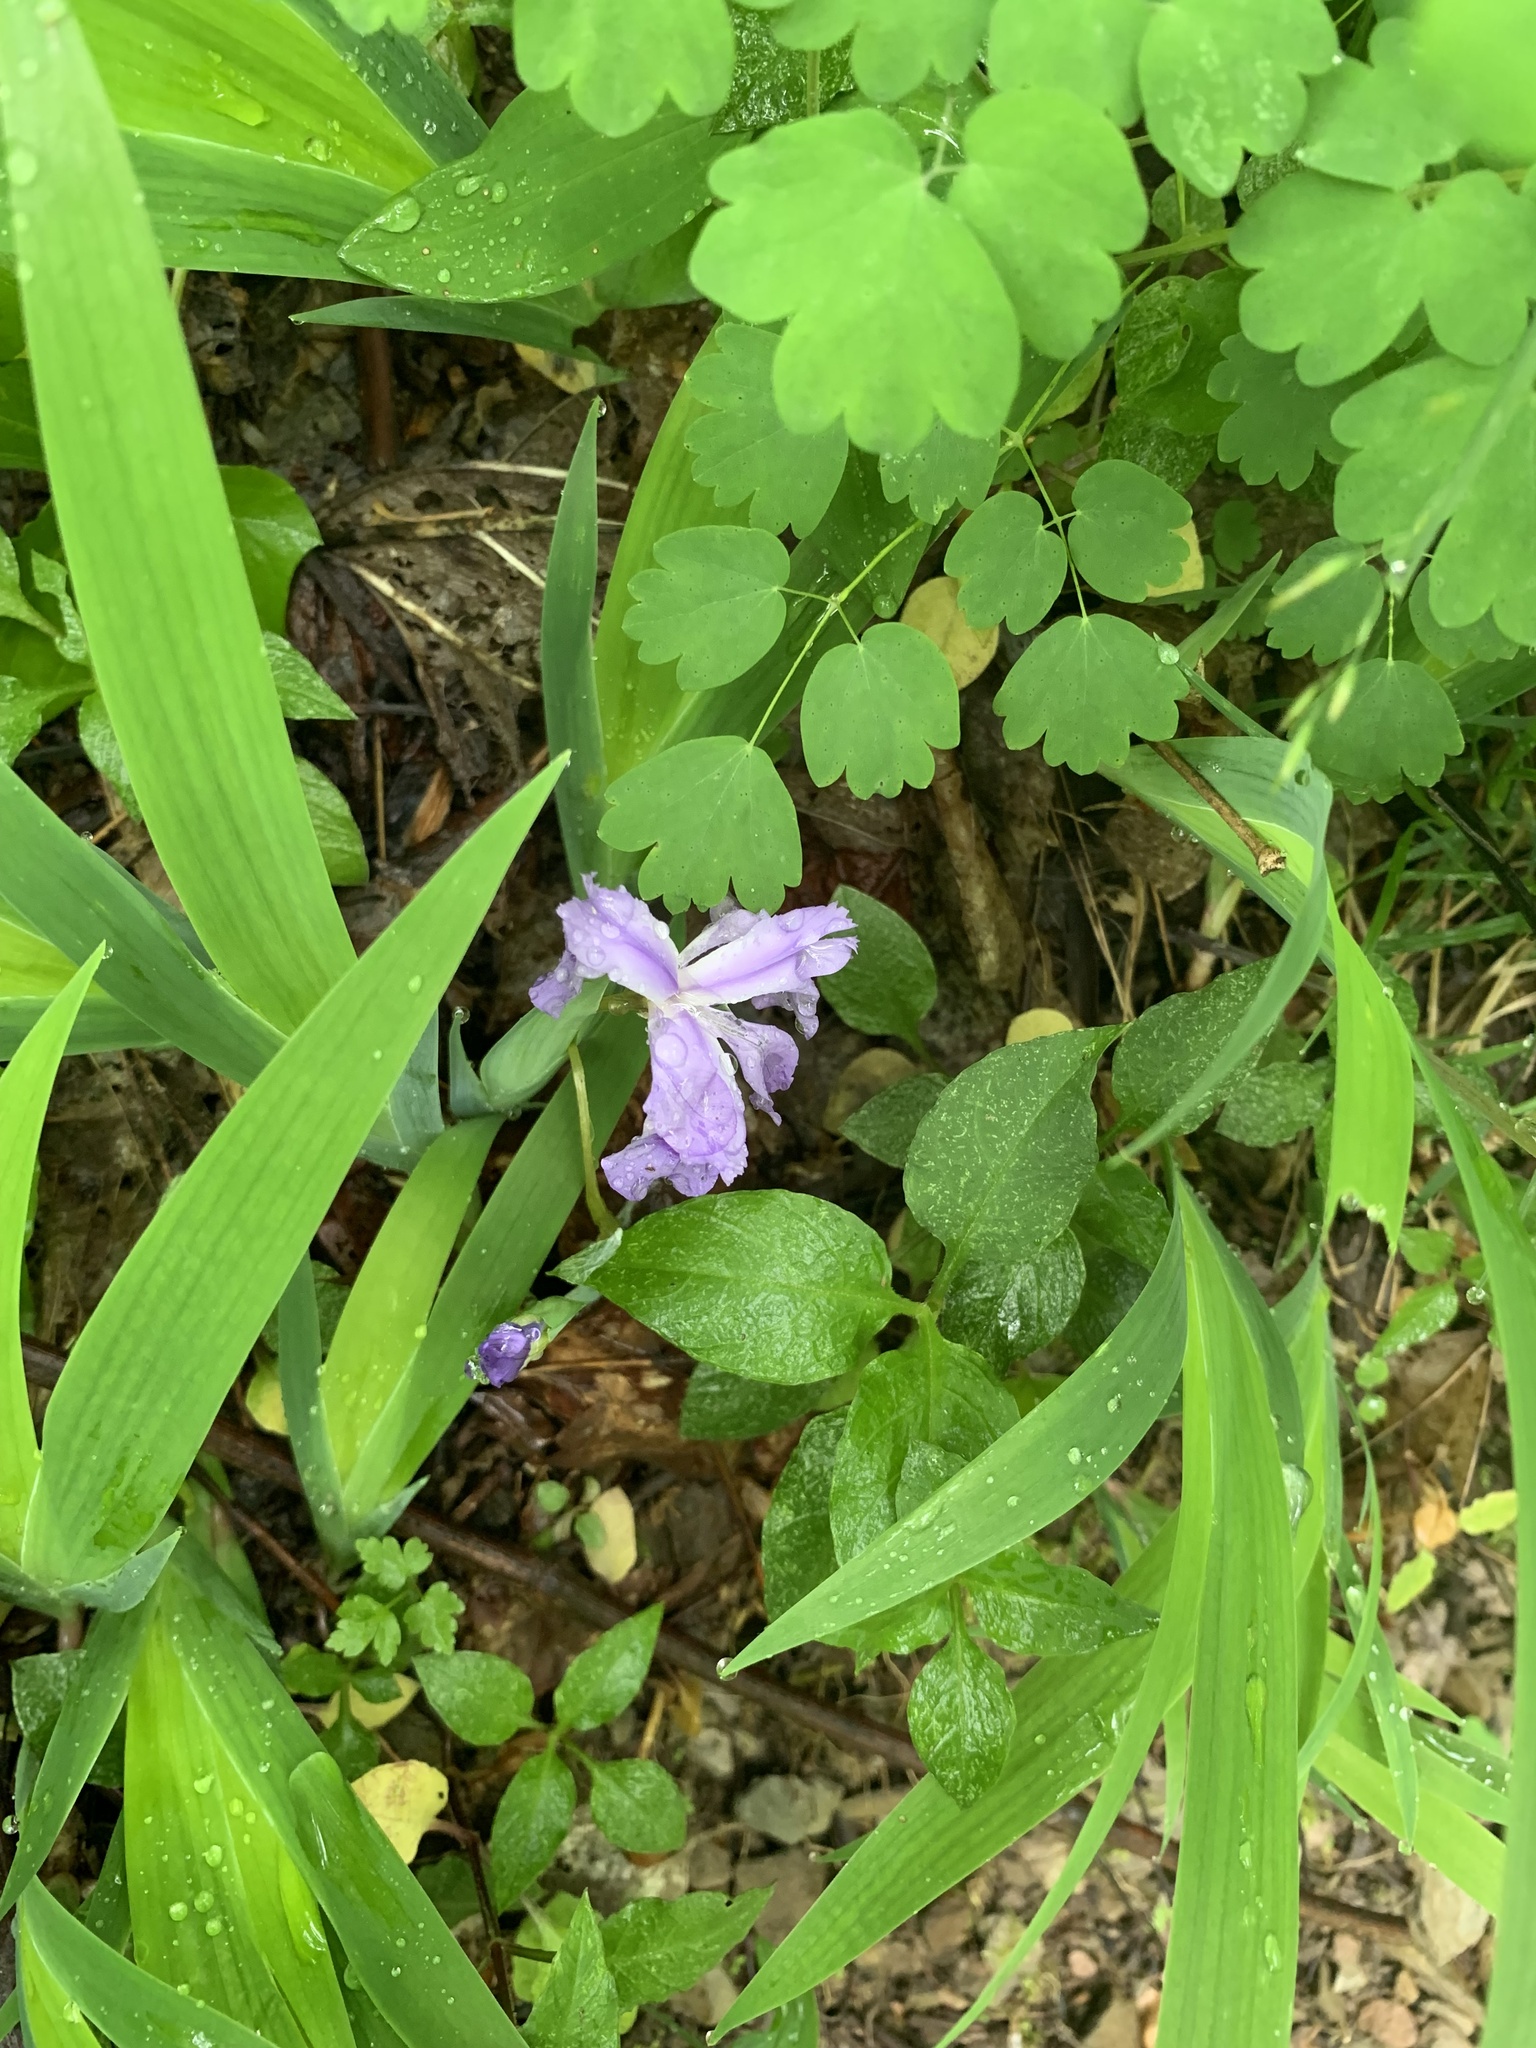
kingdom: Plantae
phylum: Tracheophyta
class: Liliopsida
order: Asparagales
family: Iridaceae
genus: Iris
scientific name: Iris cristata
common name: Crested iris
